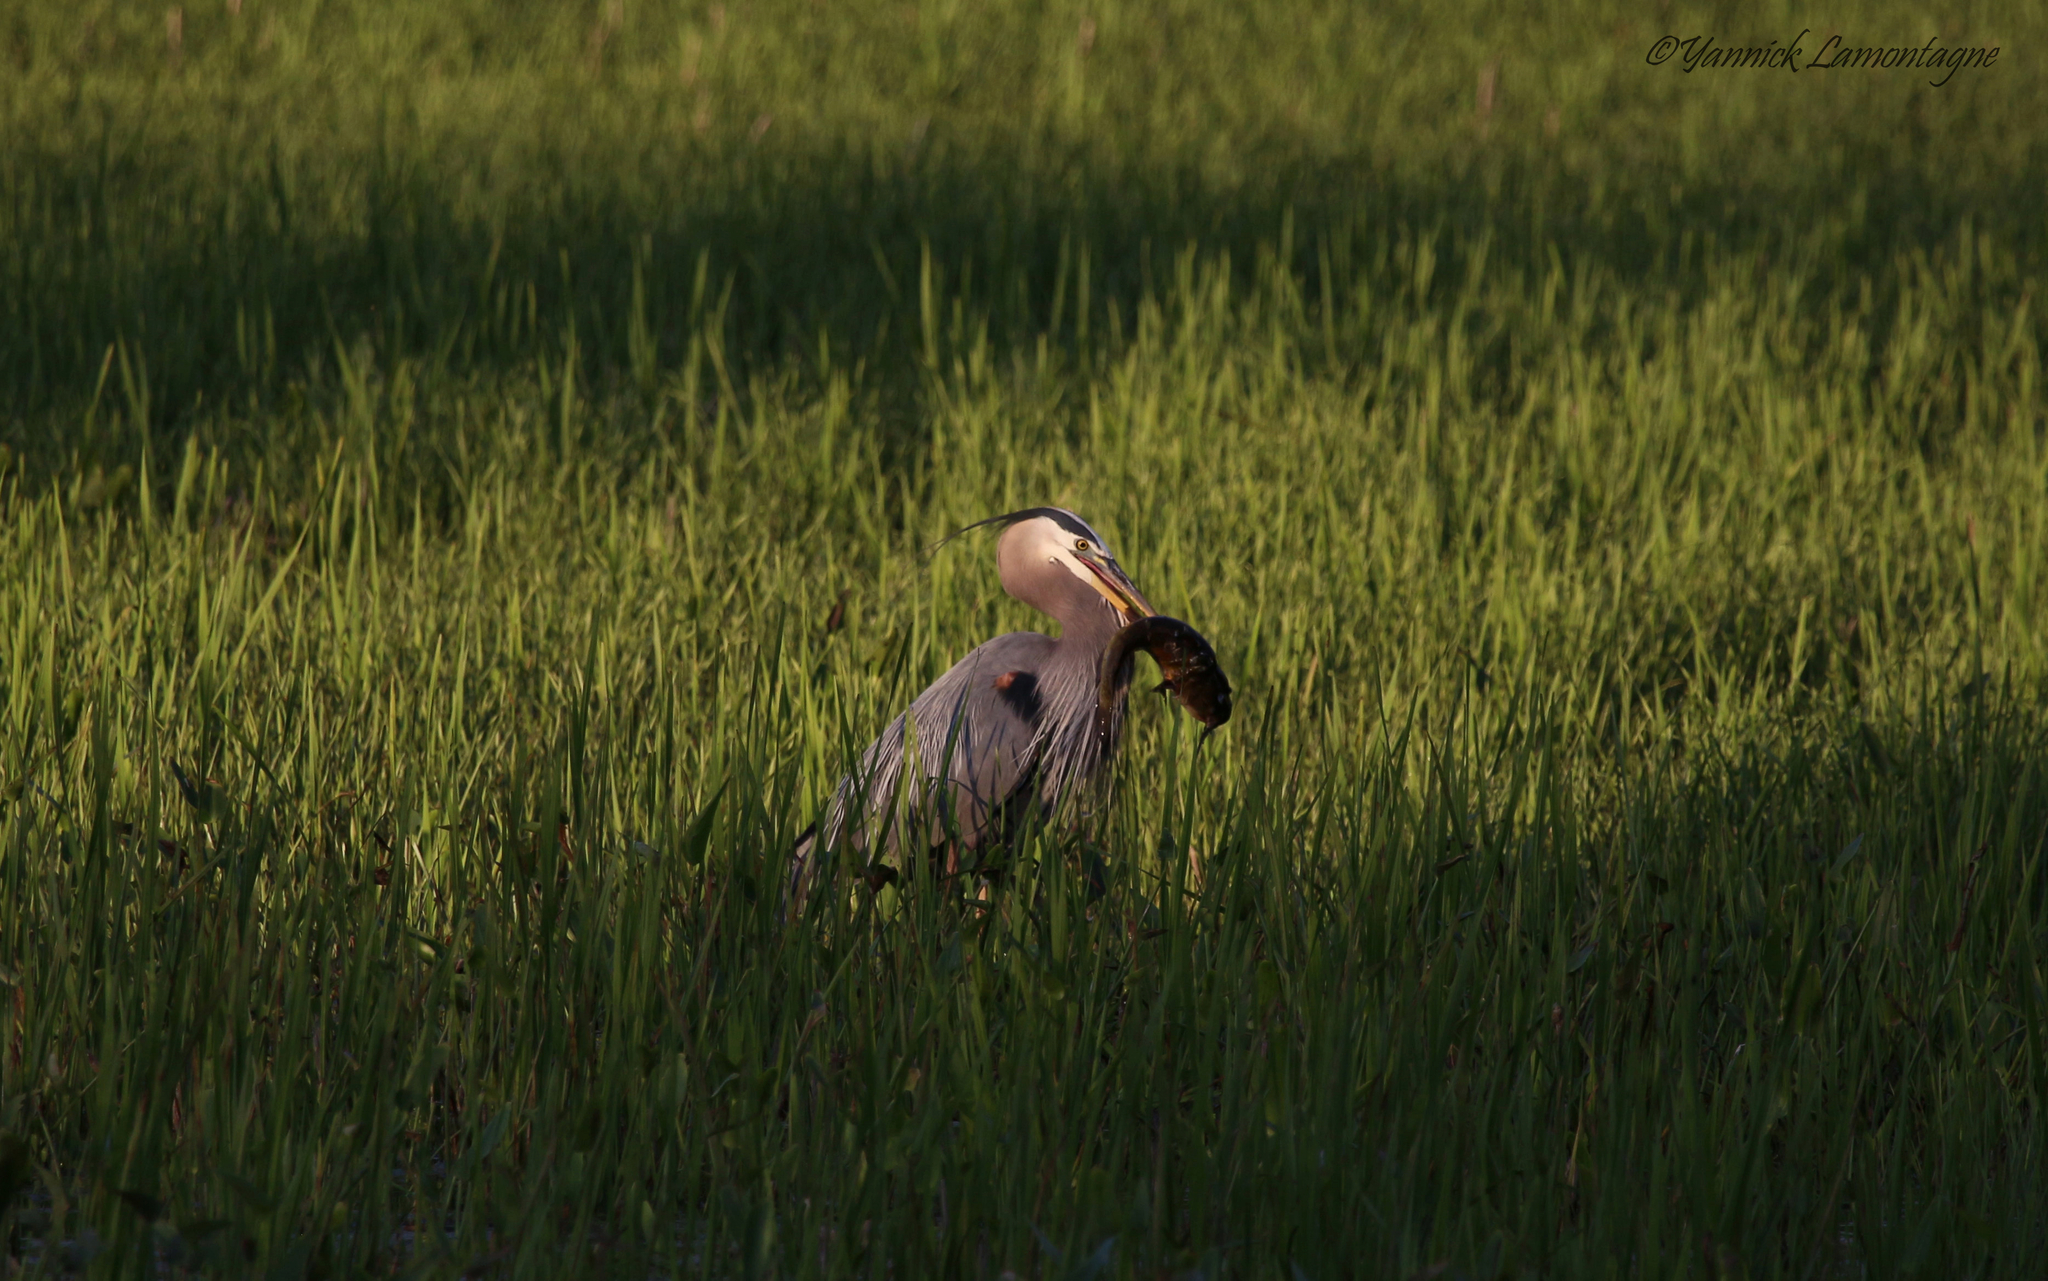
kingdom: Animalia
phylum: Chordata
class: Aves
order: Pelecaniformes
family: Ardeidae
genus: Ardea
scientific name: Ardea herodias
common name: Great blue heron
